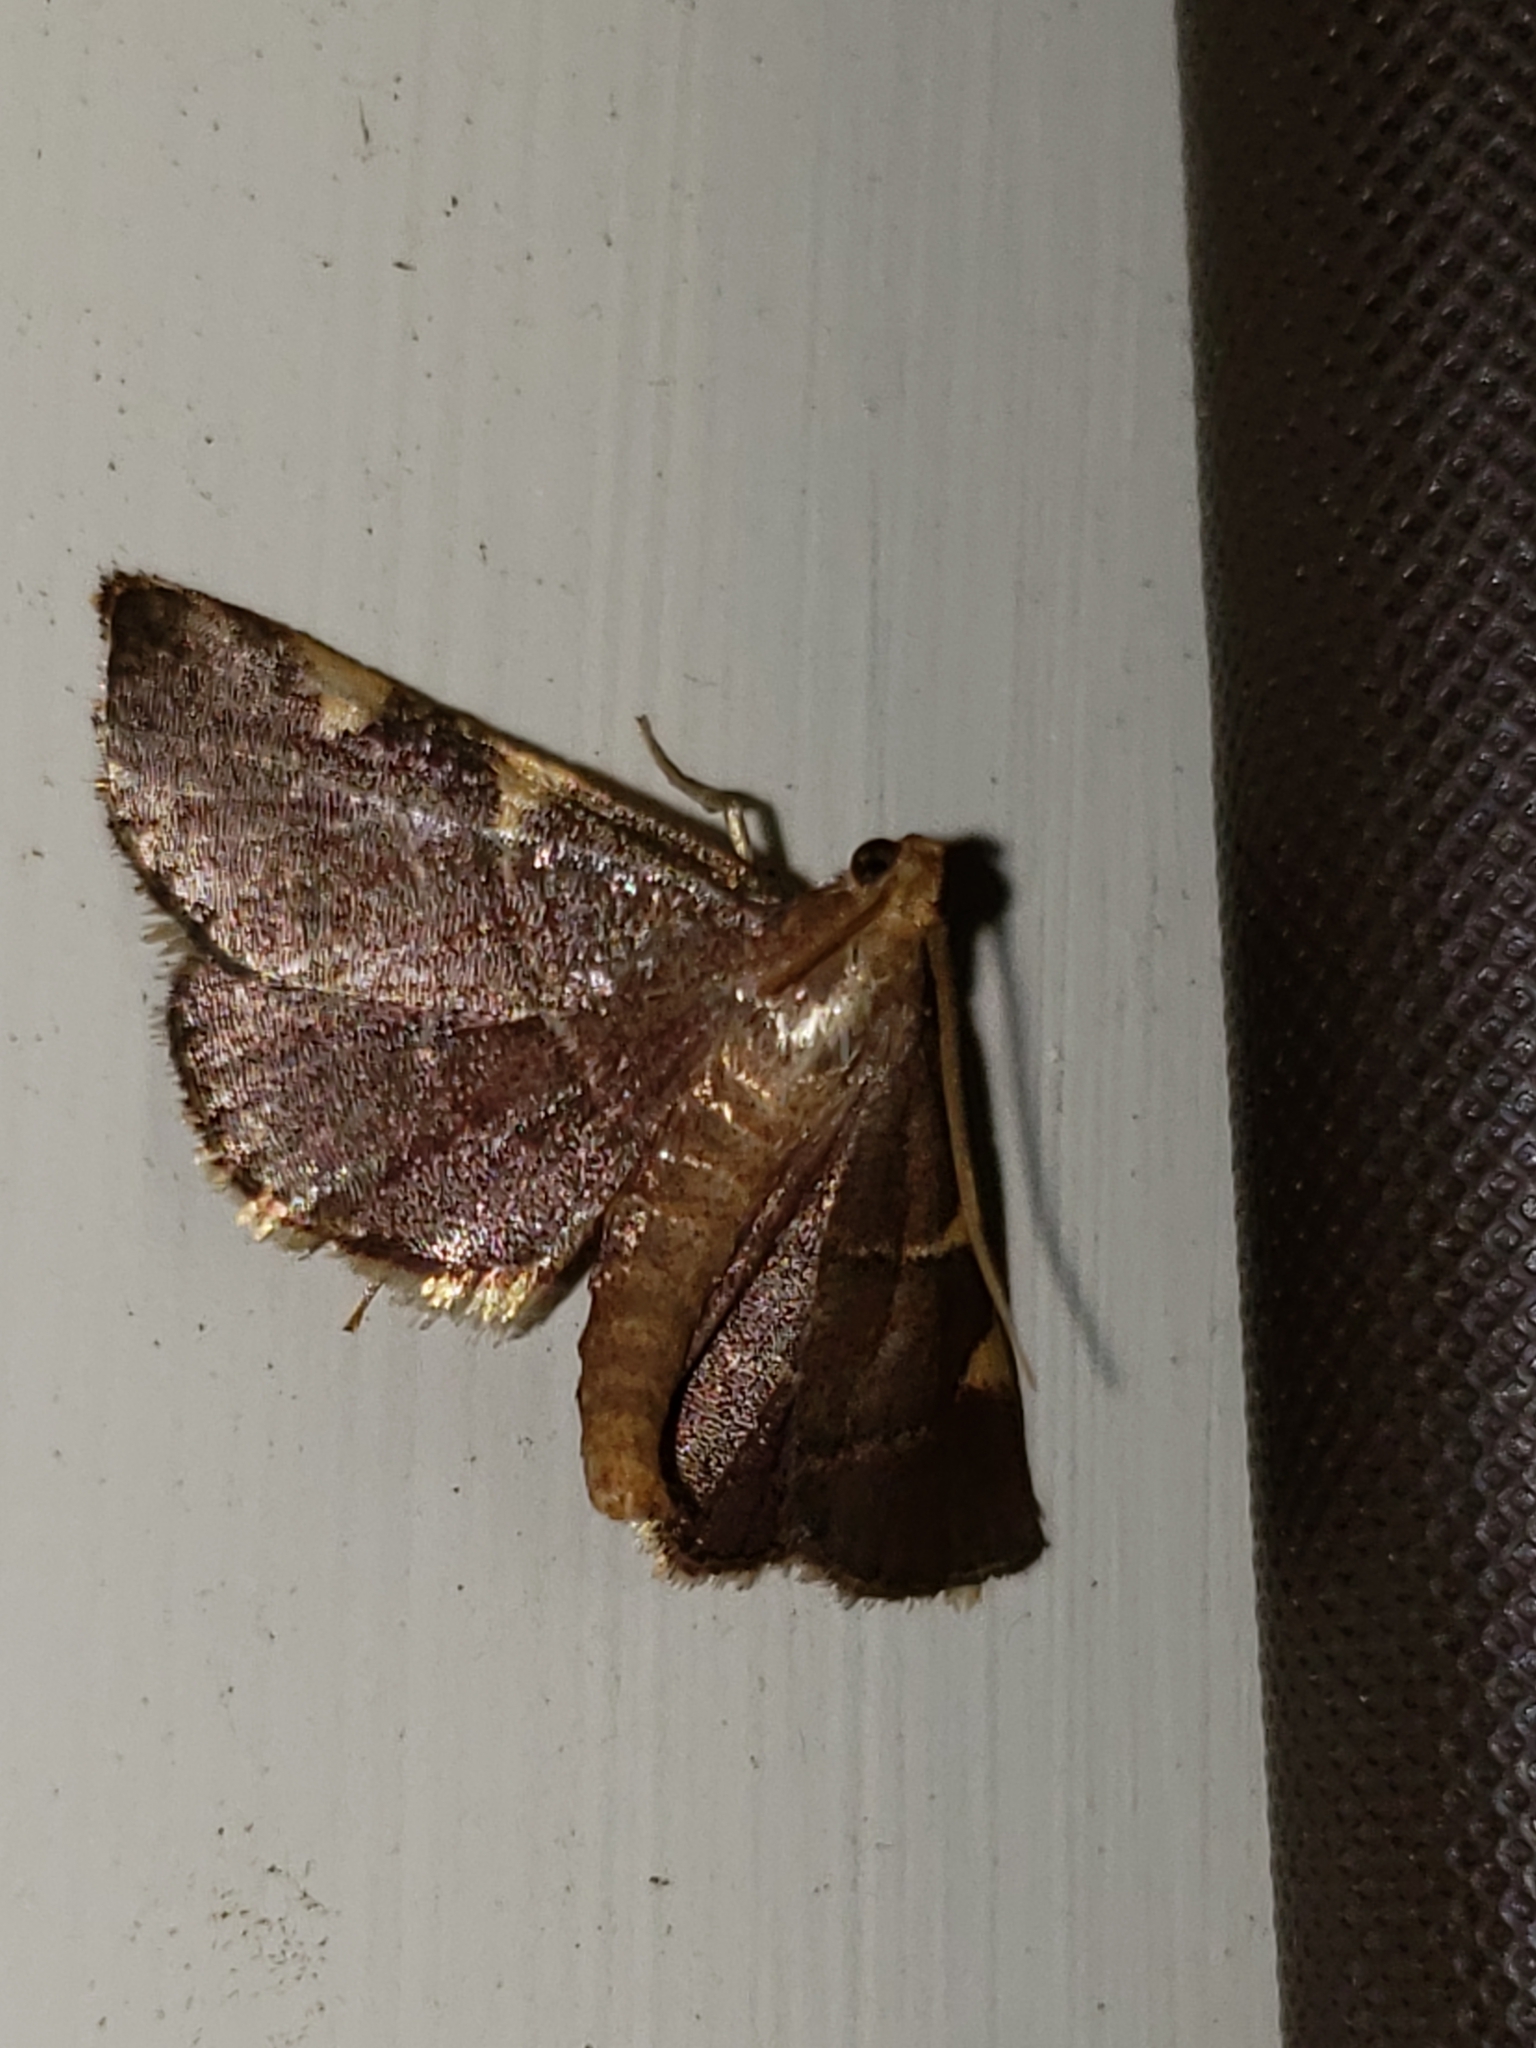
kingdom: Animalia
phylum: Arthropoda
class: Insecta
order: Lepidoptera
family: Pyralidae
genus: Hypsopygia
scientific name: Hypsopygia olinalis
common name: Yellow-fringed dolichomia moth
